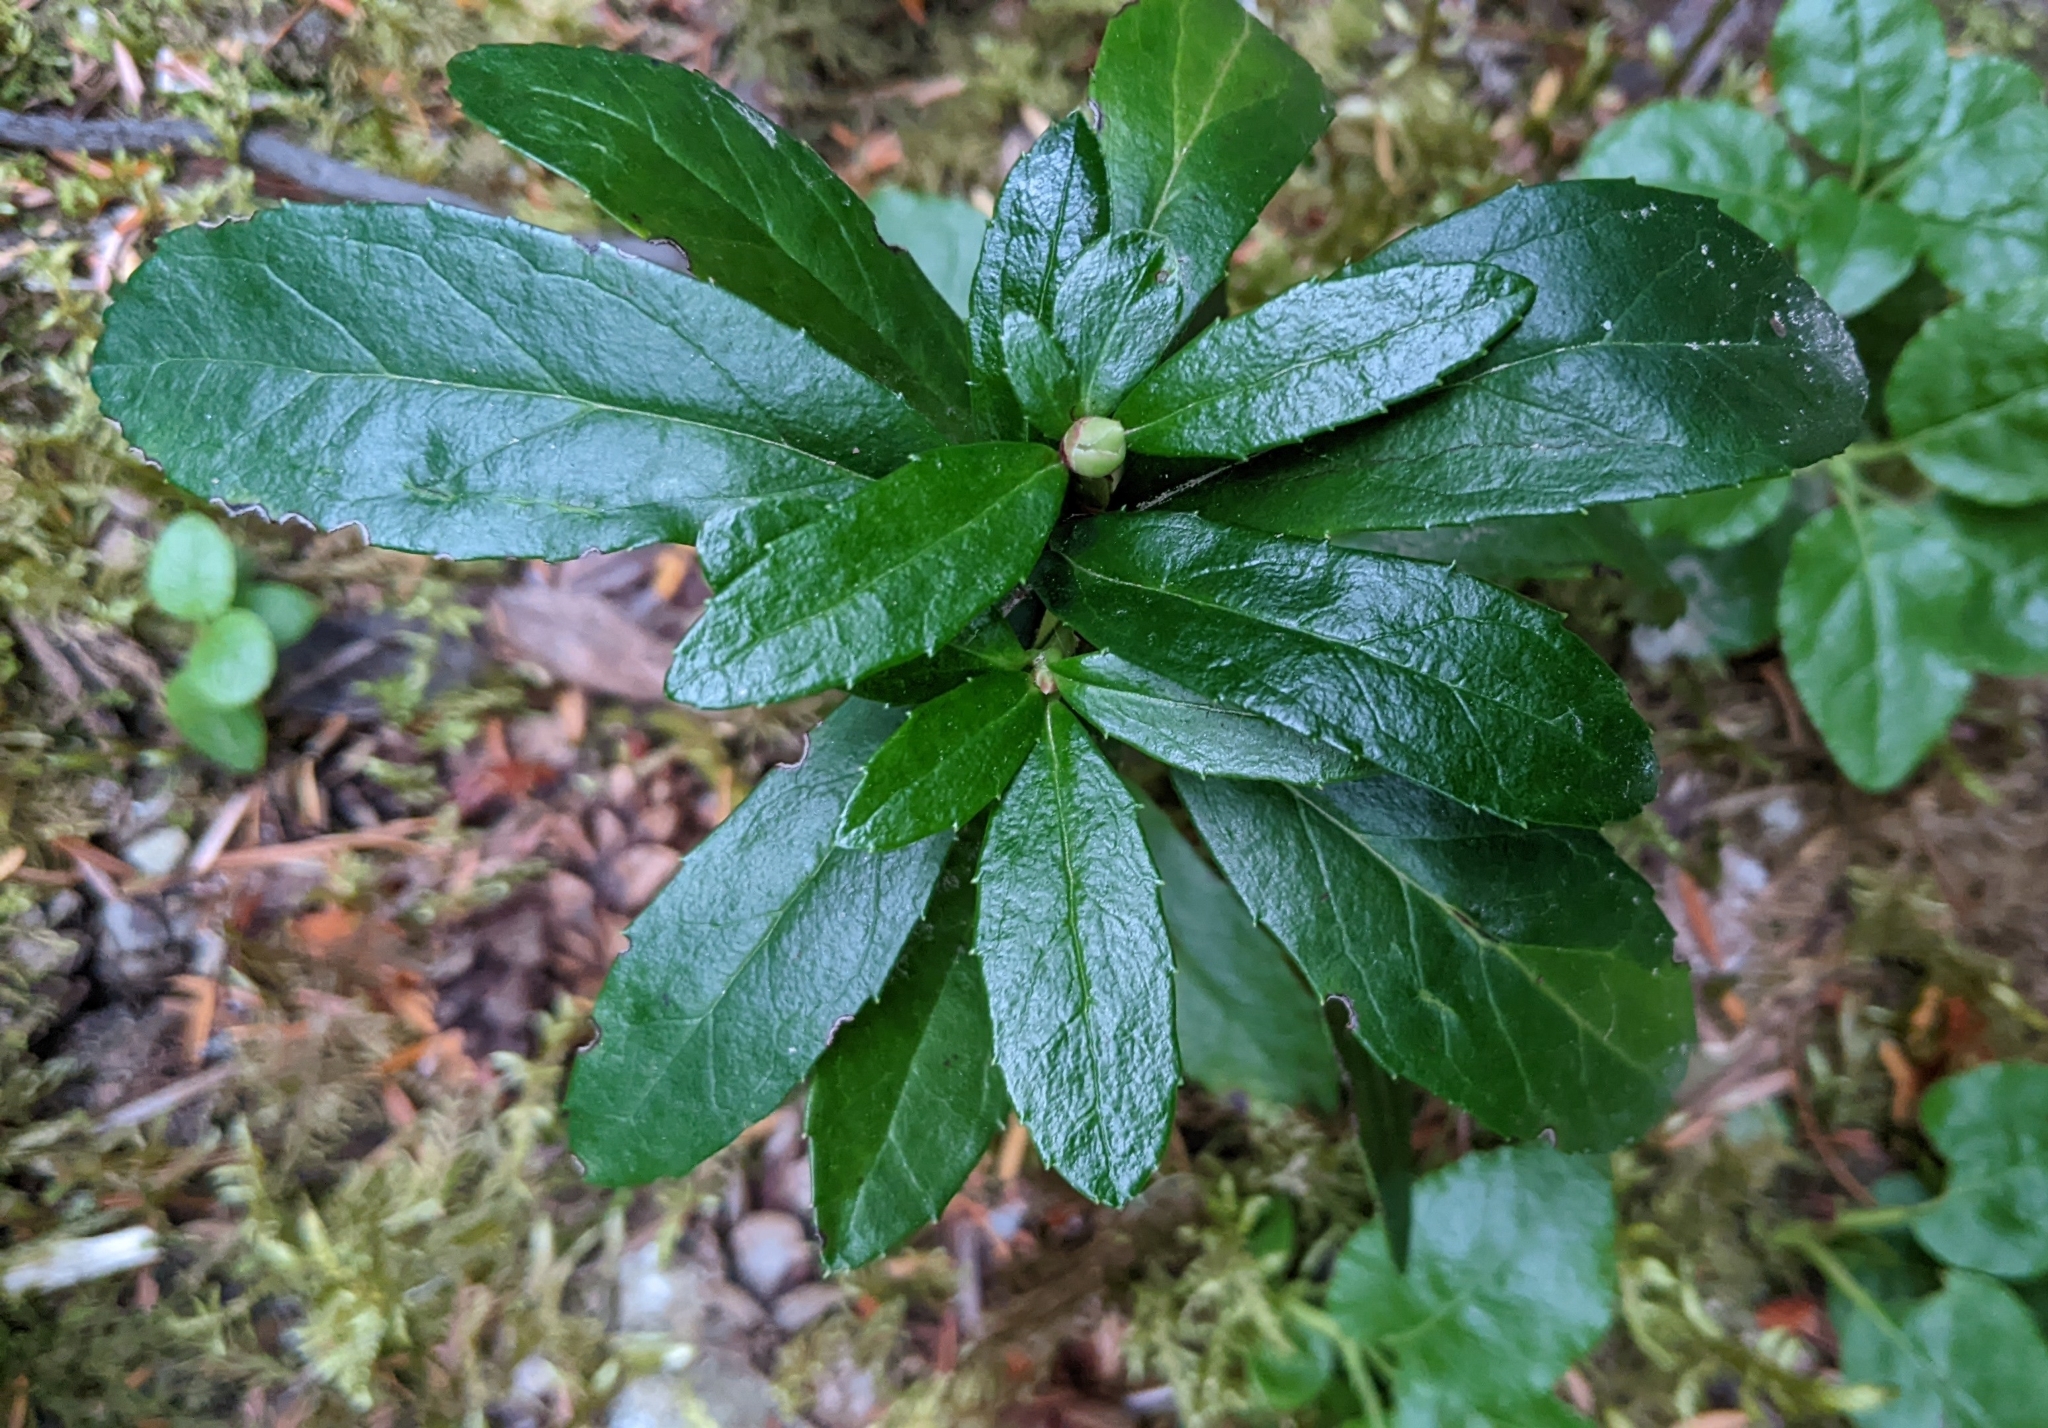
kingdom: Plantae
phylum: Tracheophyta
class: Magnoliopsida
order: Ericales
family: Ericaceae
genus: Chimaphila
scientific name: Chimaphila umbellata
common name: Pipsissewa
